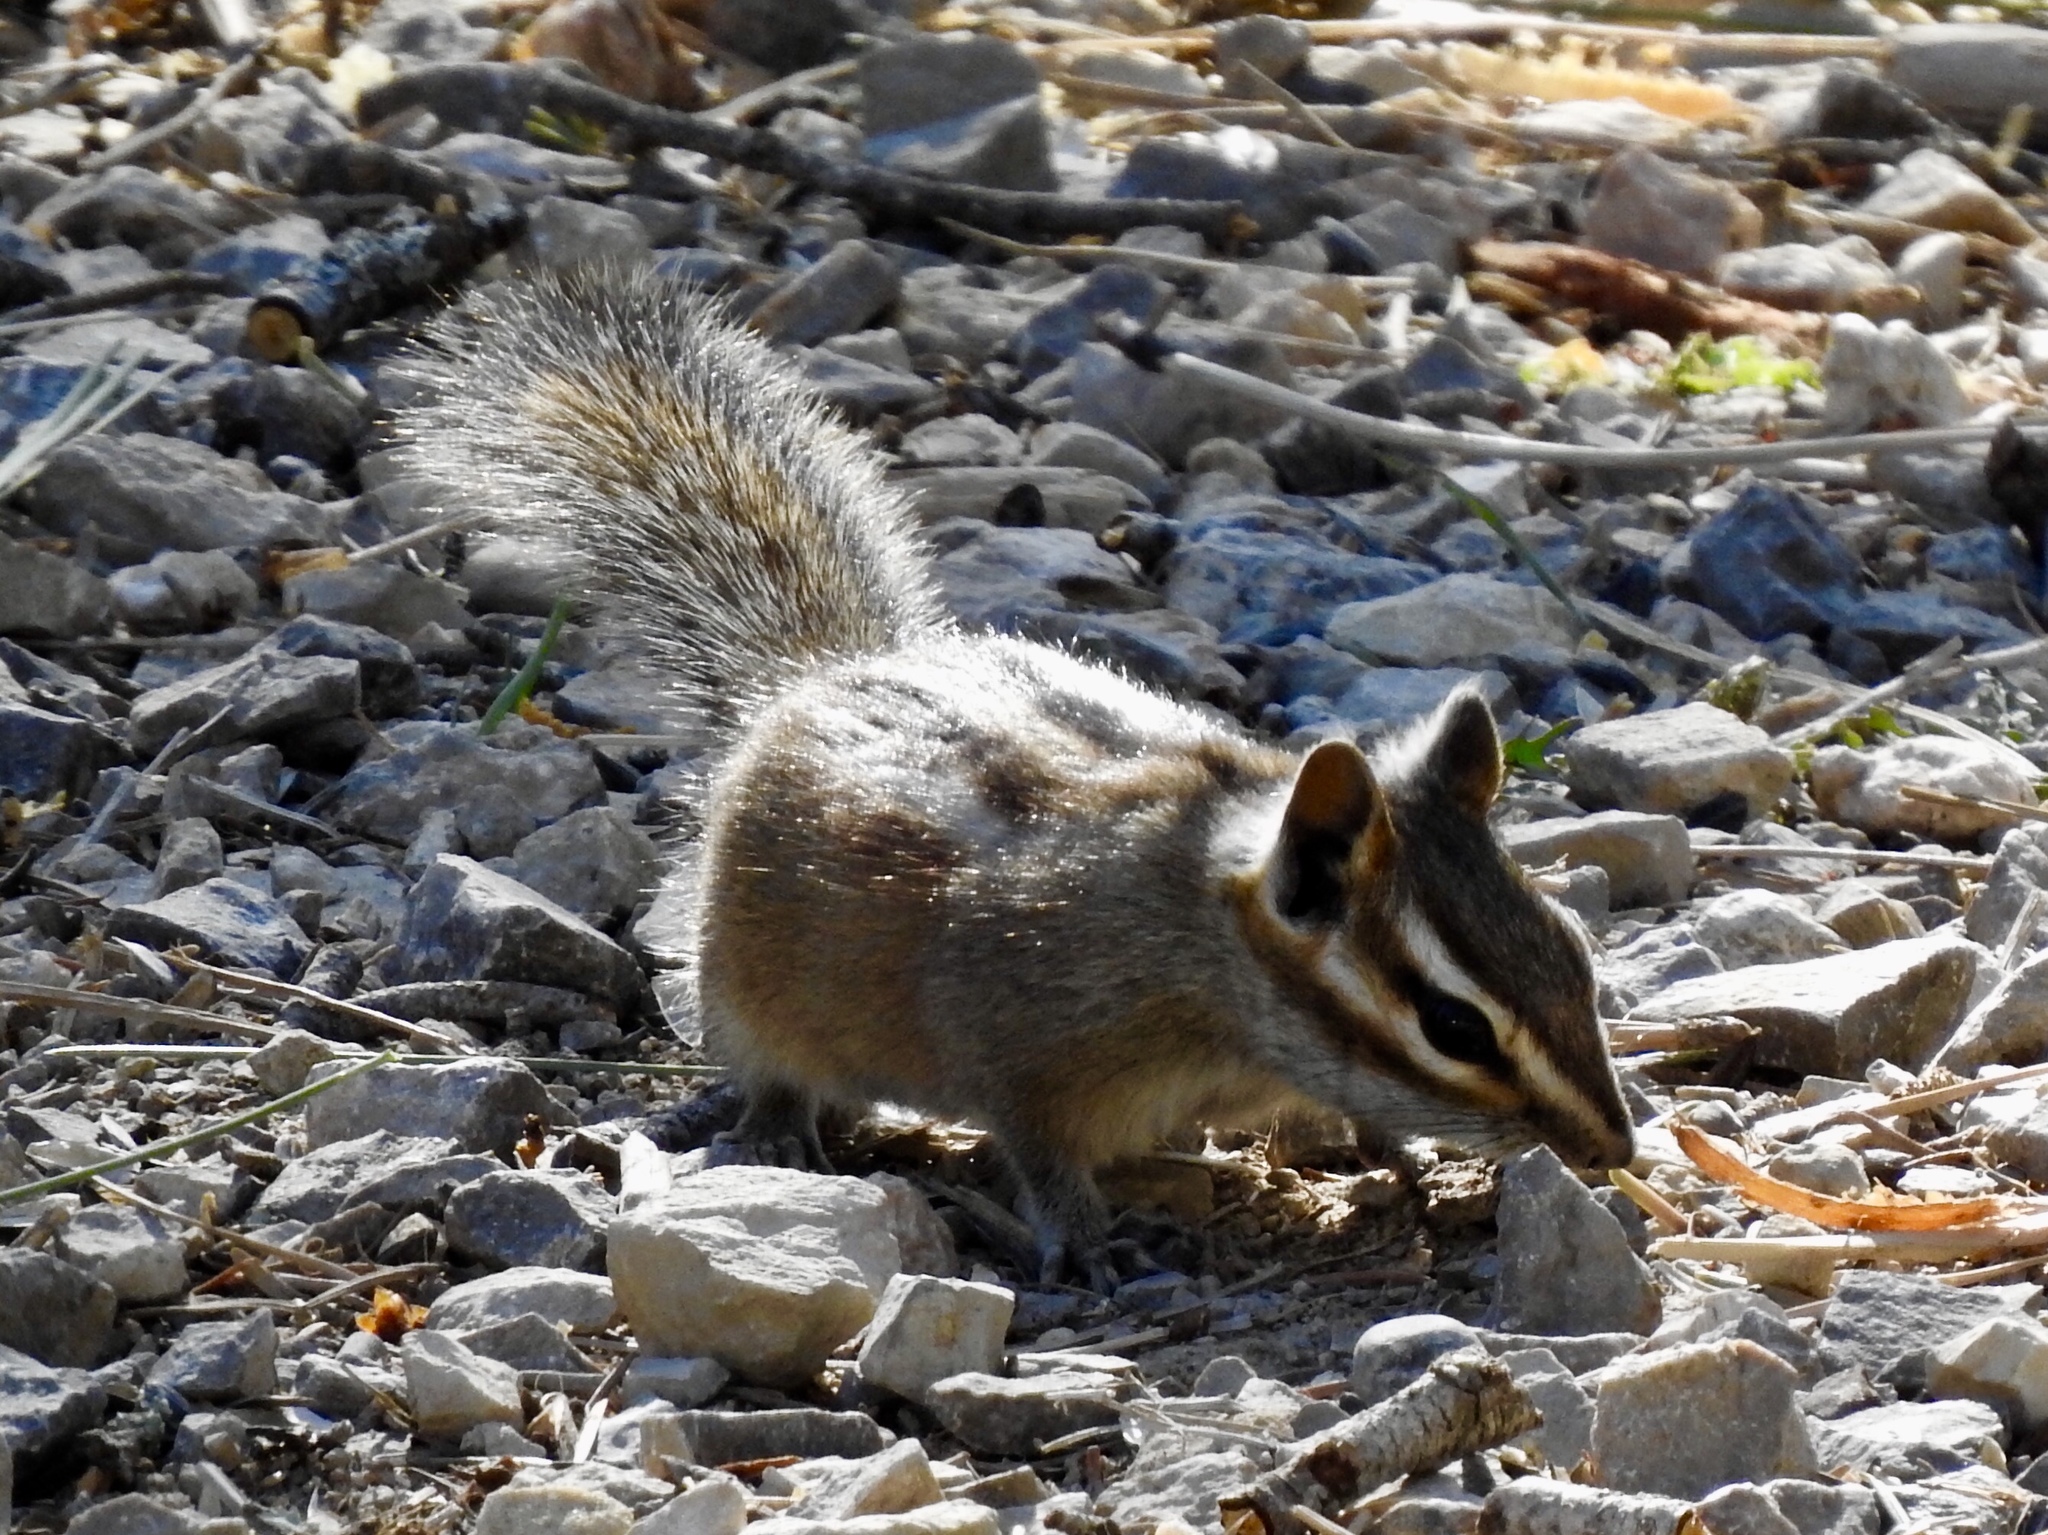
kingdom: Animalia
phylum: Chordata
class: Mammalia
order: Rodentia
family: Sciuridae
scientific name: Sciuridae
